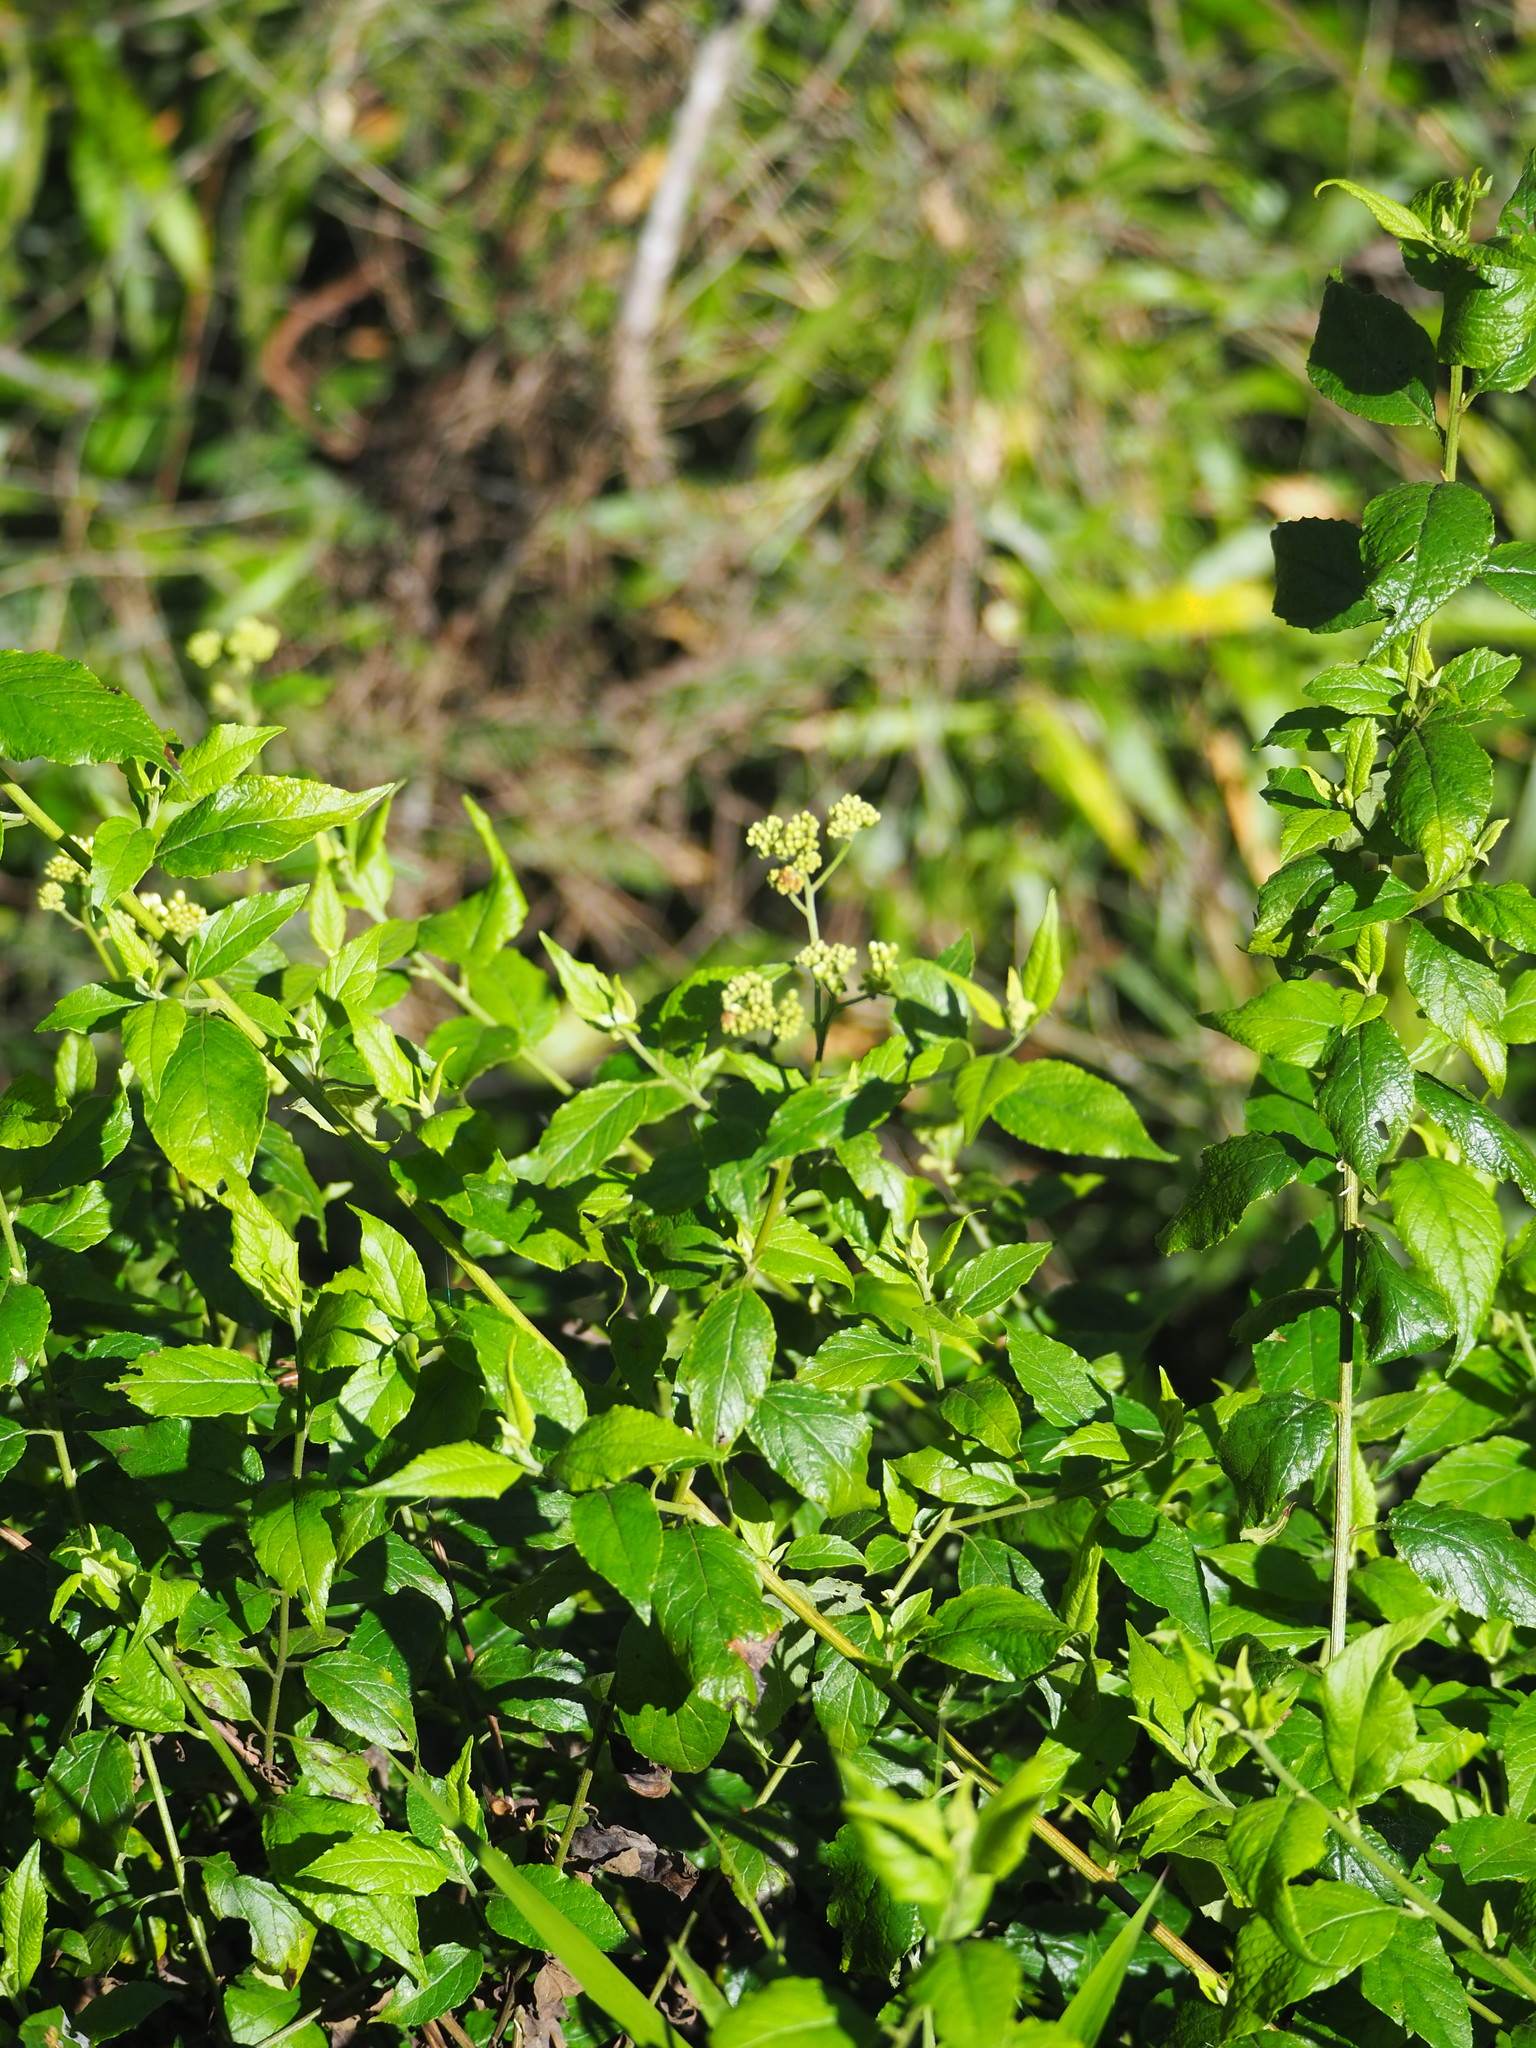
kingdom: Plantae
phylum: Tracheophyta
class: Magnoliopsida
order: Asterales
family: Asteraceae
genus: Microglossa
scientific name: Microglossa pyrifolia
